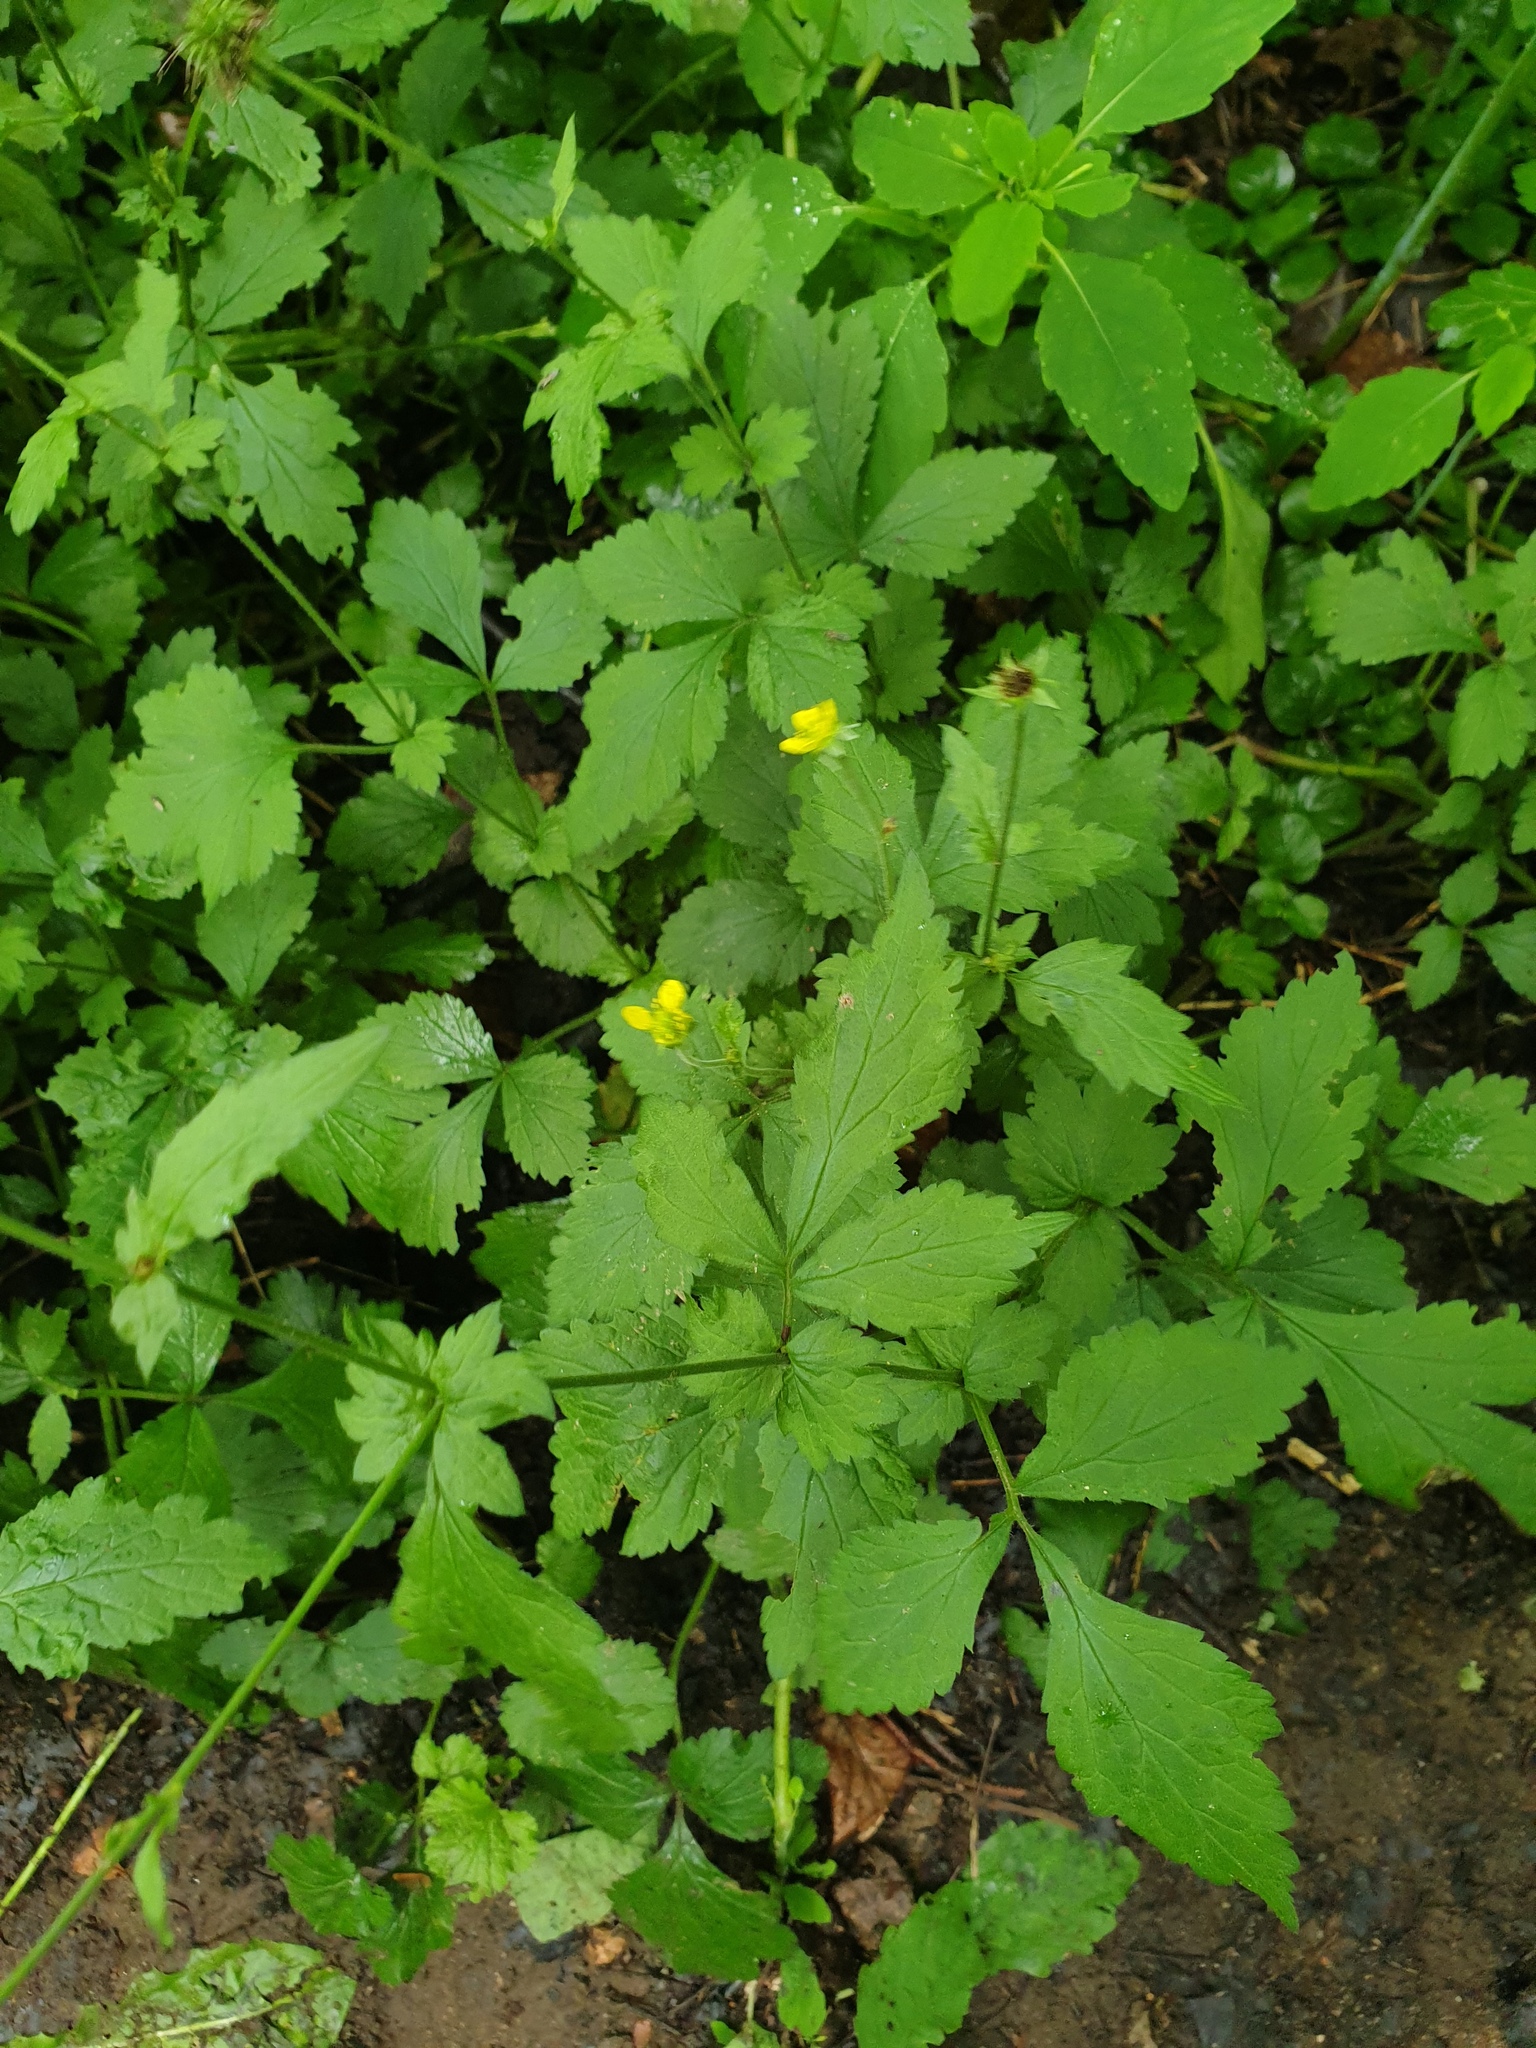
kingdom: Plantae
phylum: Tracheophyta
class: Magnoliopsida
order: Rosales
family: Rosaceae
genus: Geum
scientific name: Geum urbanum
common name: Wood avens
